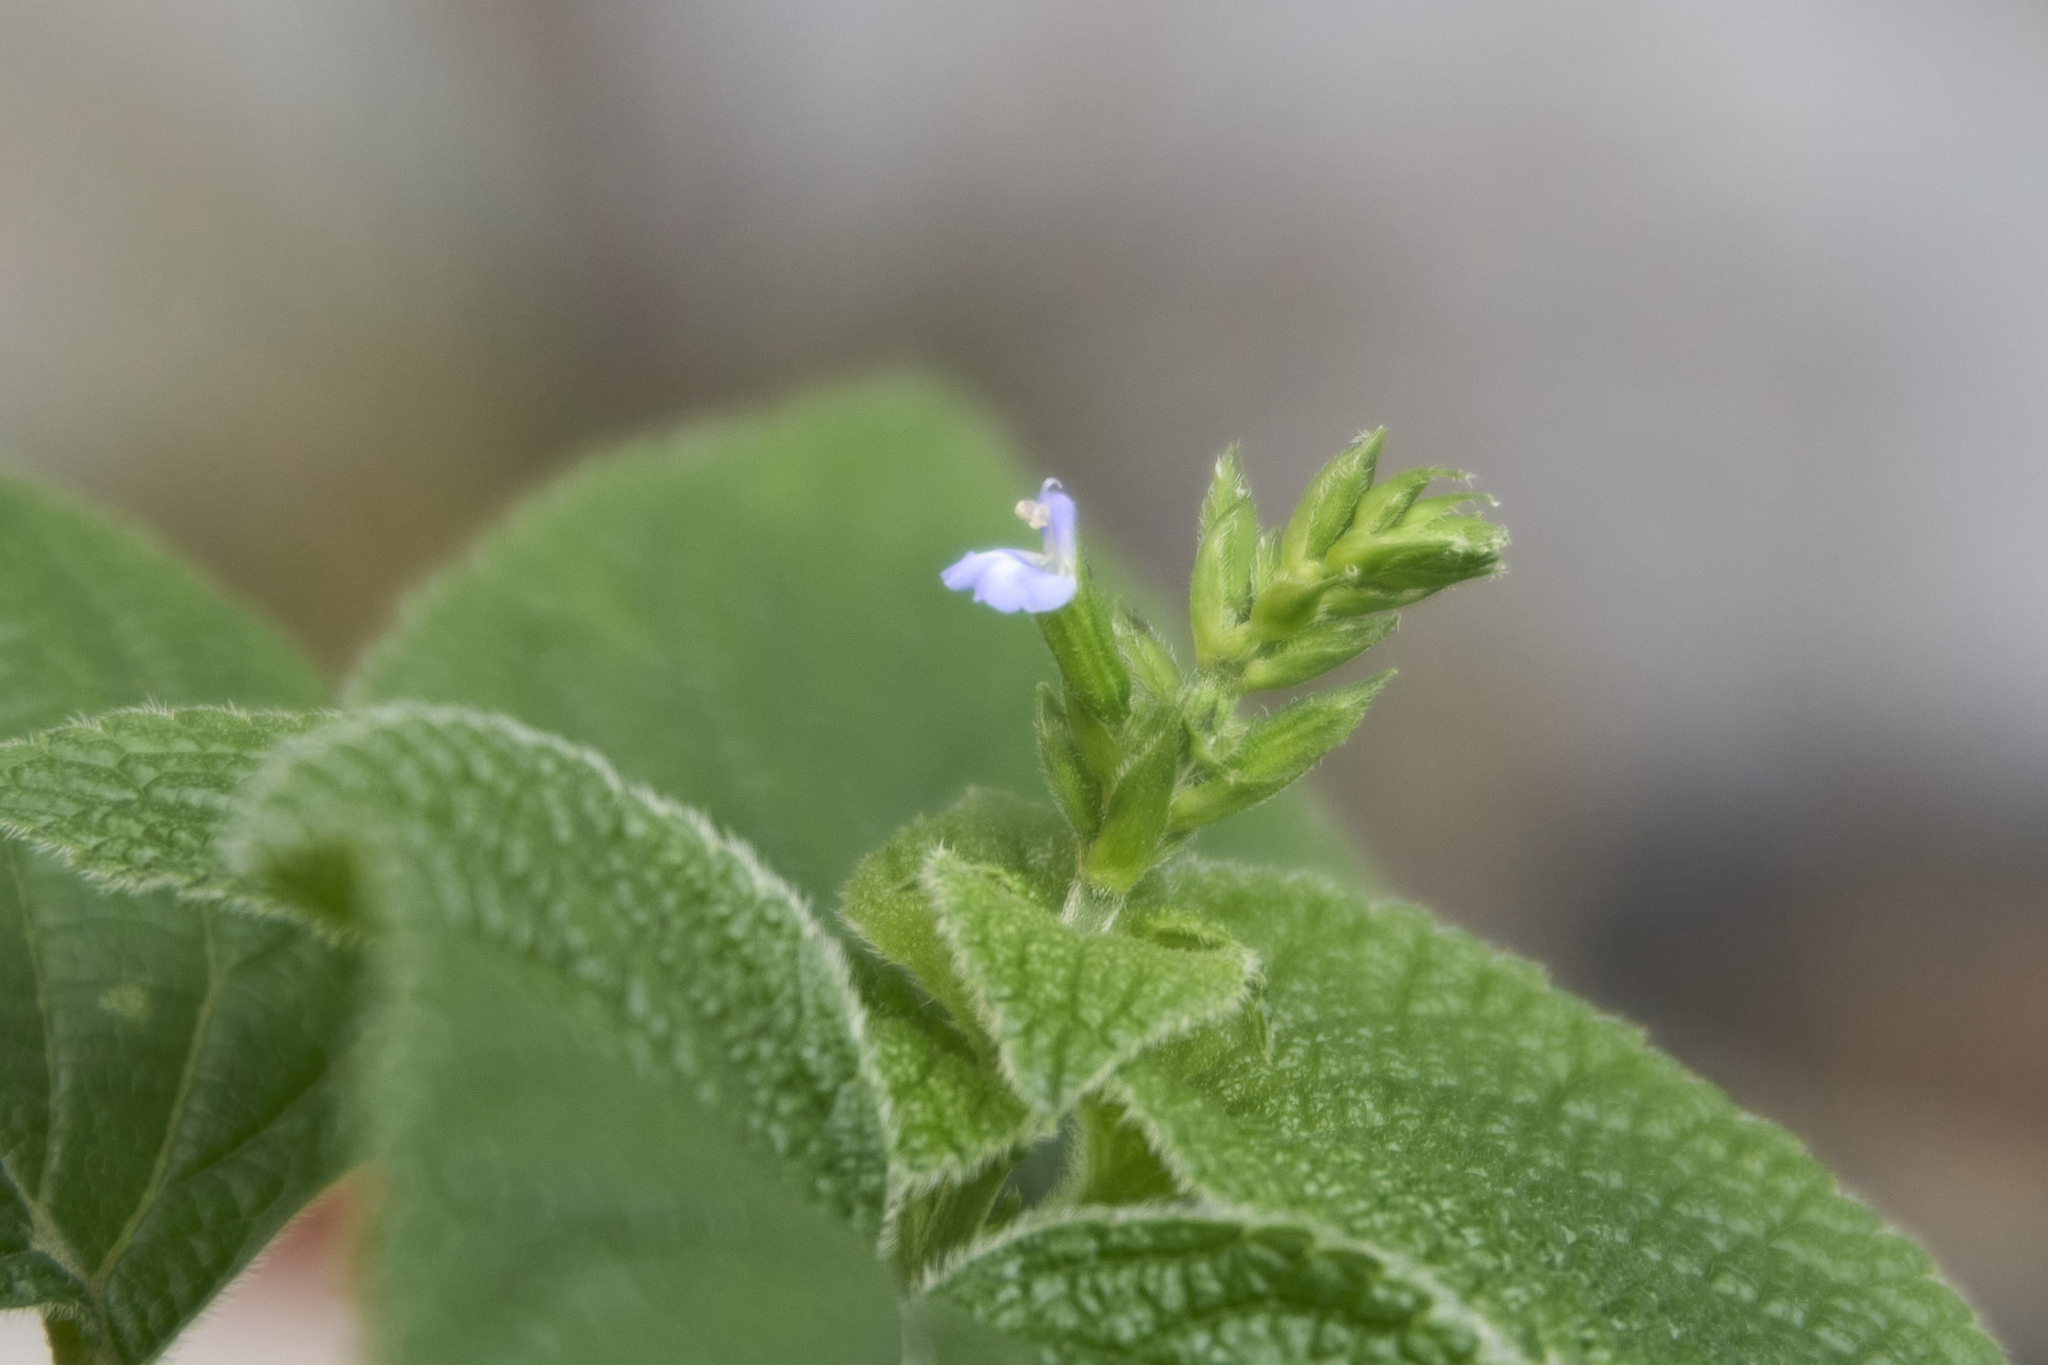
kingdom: Plantae
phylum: Tracheophyta
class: Magnoliopsida
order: Lamiales
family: Lamiaceae
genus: Salvia
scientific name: Salvia tiliifolia
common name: Lindenleaf sage
